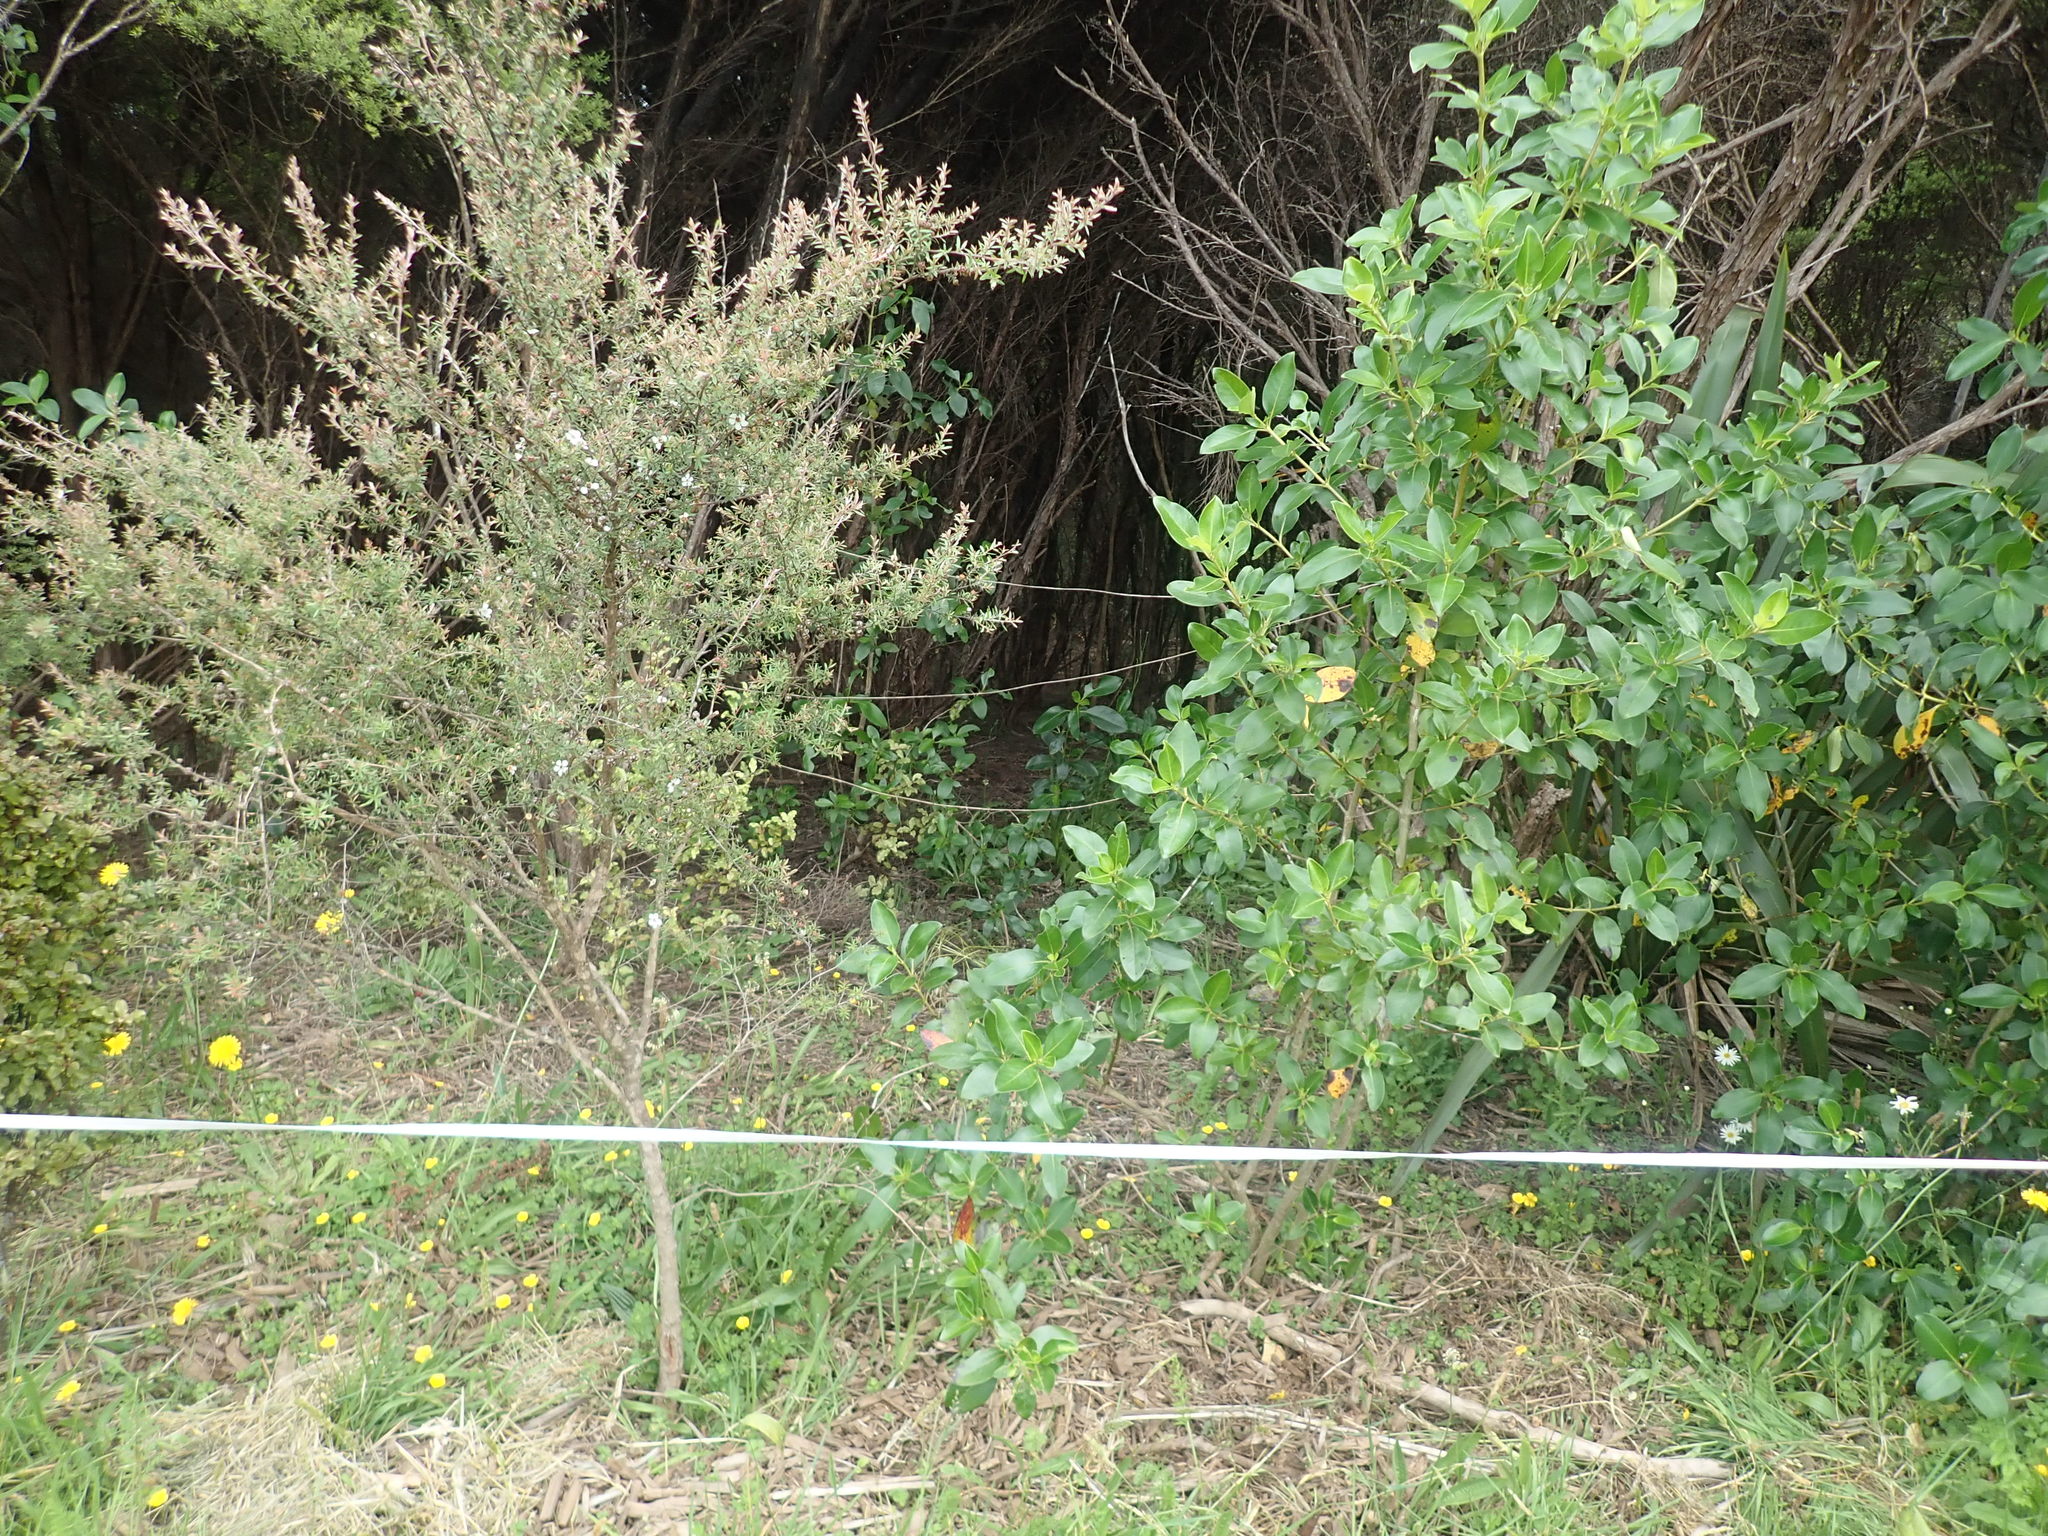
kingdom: Plantae
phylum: Tracheophyta
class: Magnoliopsida
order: Gentianales
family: Rubiaceae
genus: Coprosma
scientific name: Coprosma robusta
